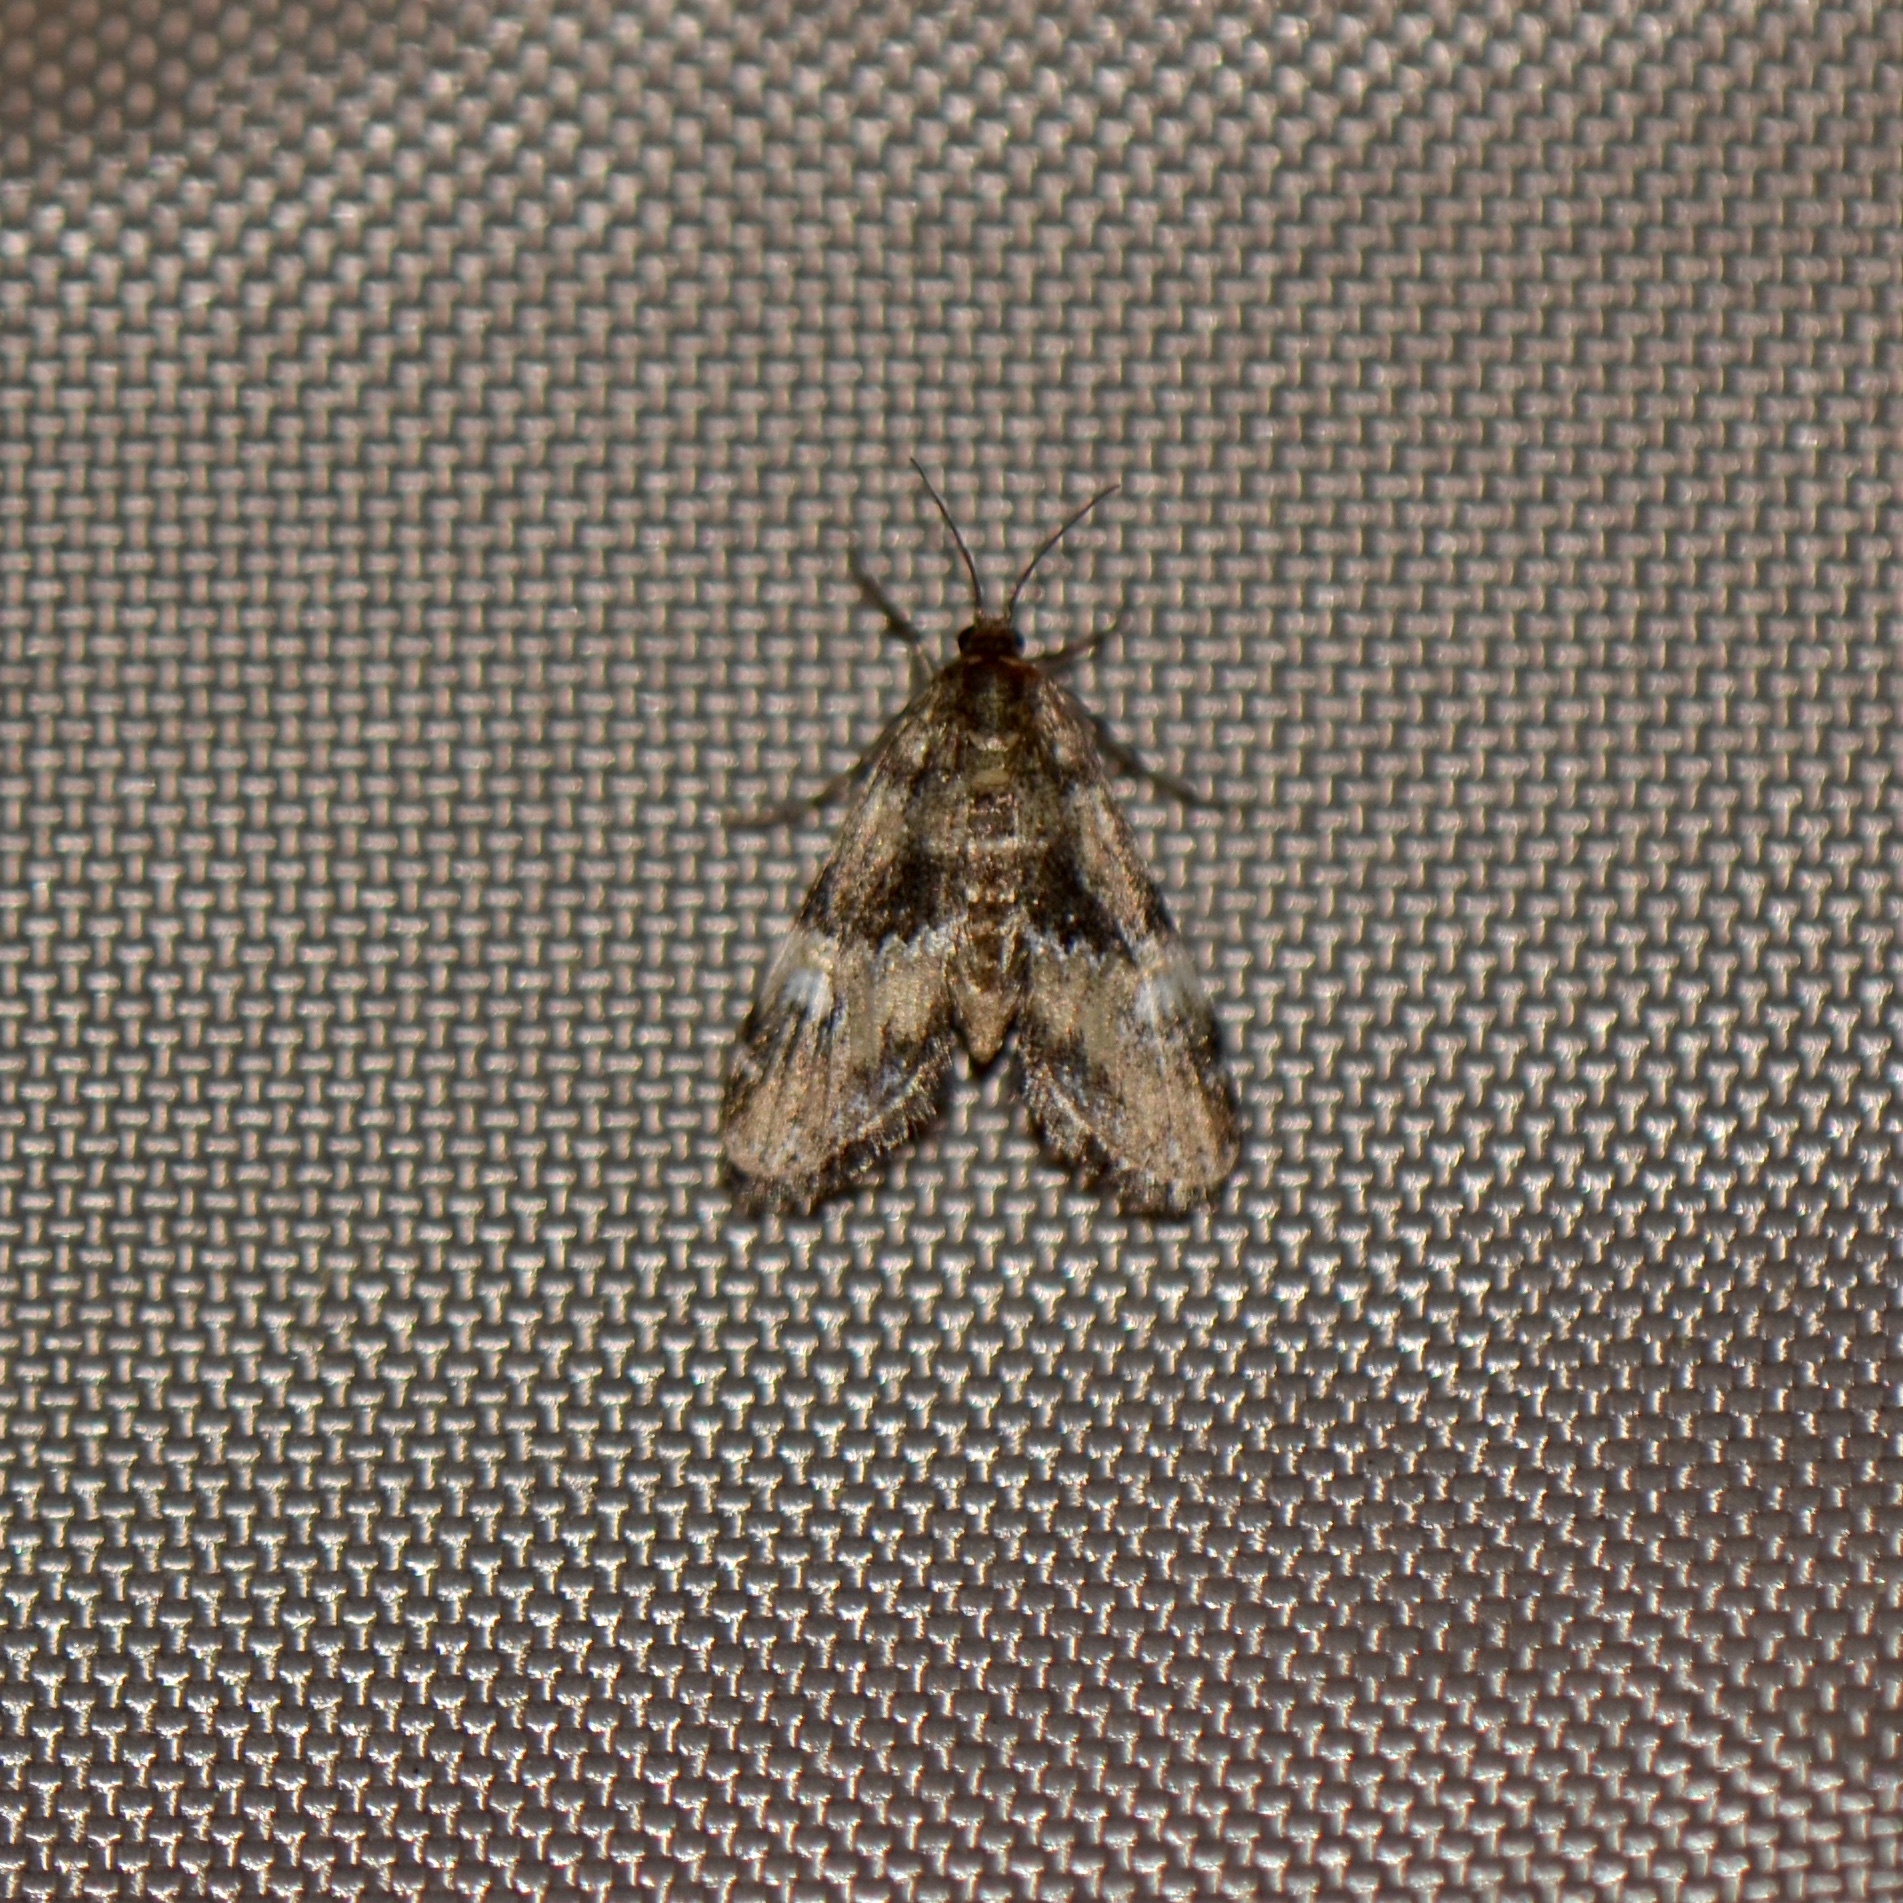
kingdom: Animalia
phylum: Arthropoda
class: Insecta
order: Lepidoptera
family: Crambidae
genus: Elophila
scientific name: Elophila obliteralis
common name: Waterlily leafcutter moth
